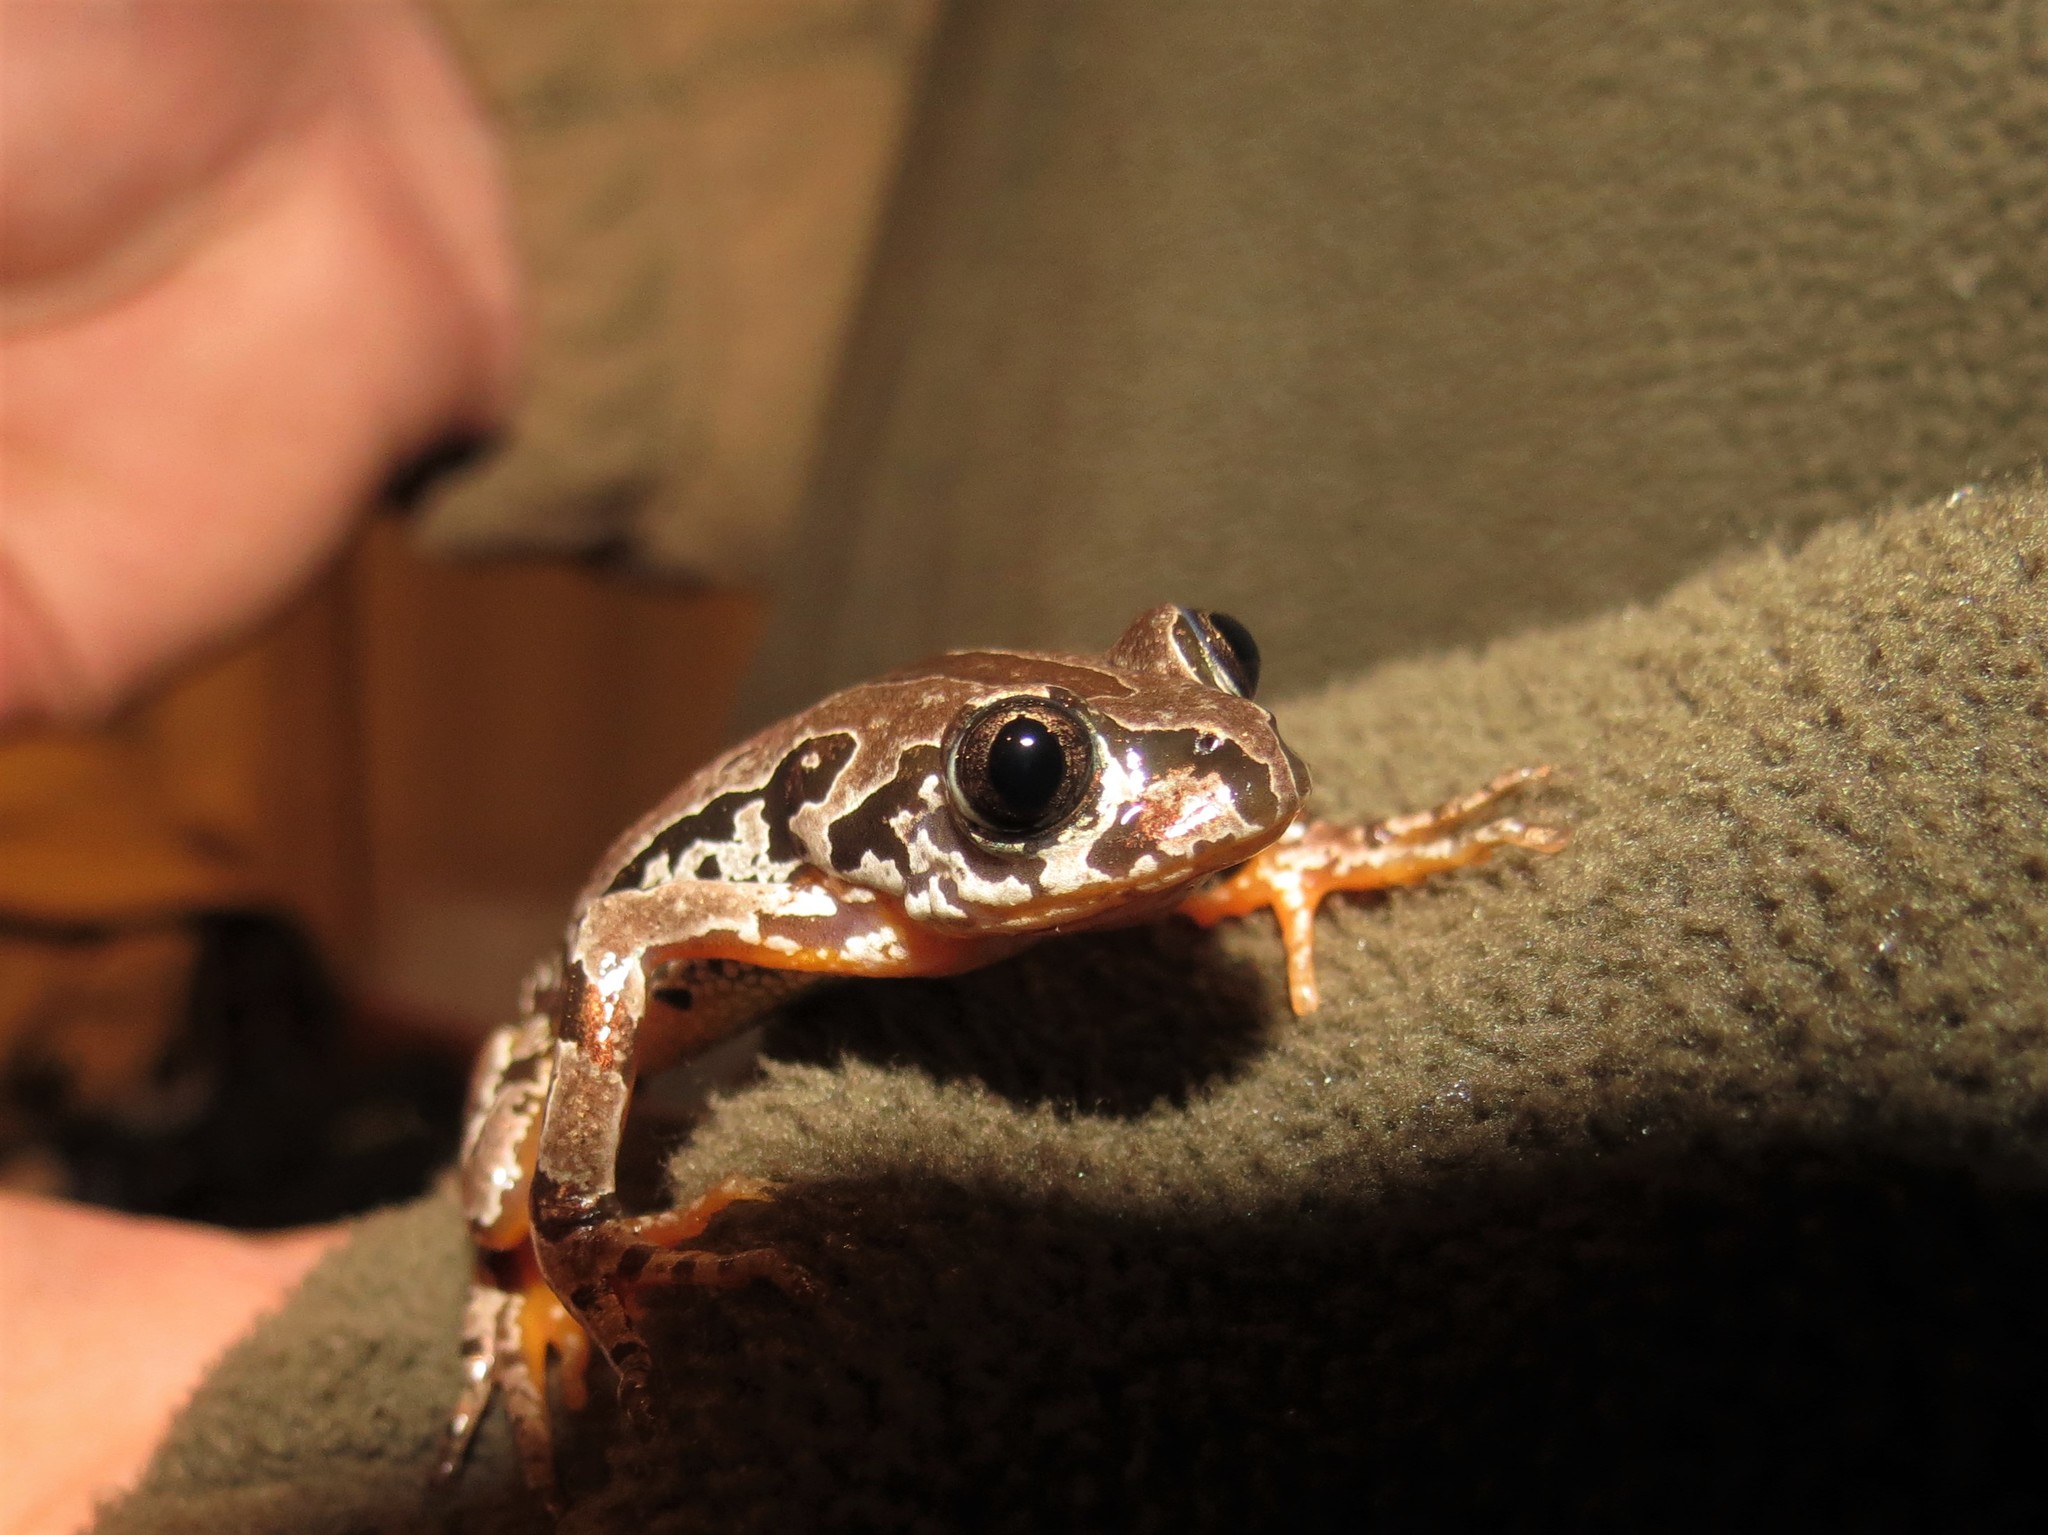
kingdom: Animalia
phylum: Chordata
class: Amphibia
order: Anura
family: Hyperoliidae
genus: Semnodactylus
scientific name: Semnodactylus wealii
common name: Weal's frog
